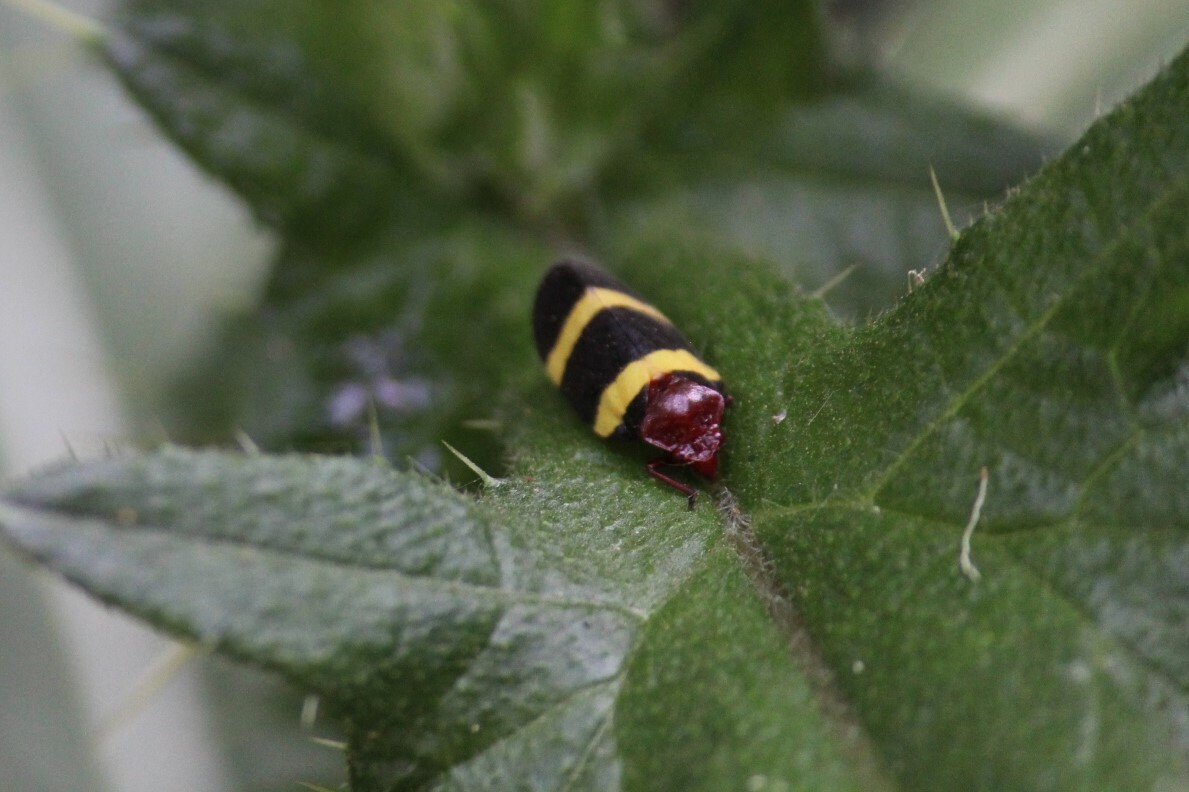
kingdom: Animalia
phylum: Arthropoda
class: Insecta
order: Hemiptera
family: Cercopidae
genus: Sphenorhina
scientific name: Sphenorhina rubra
